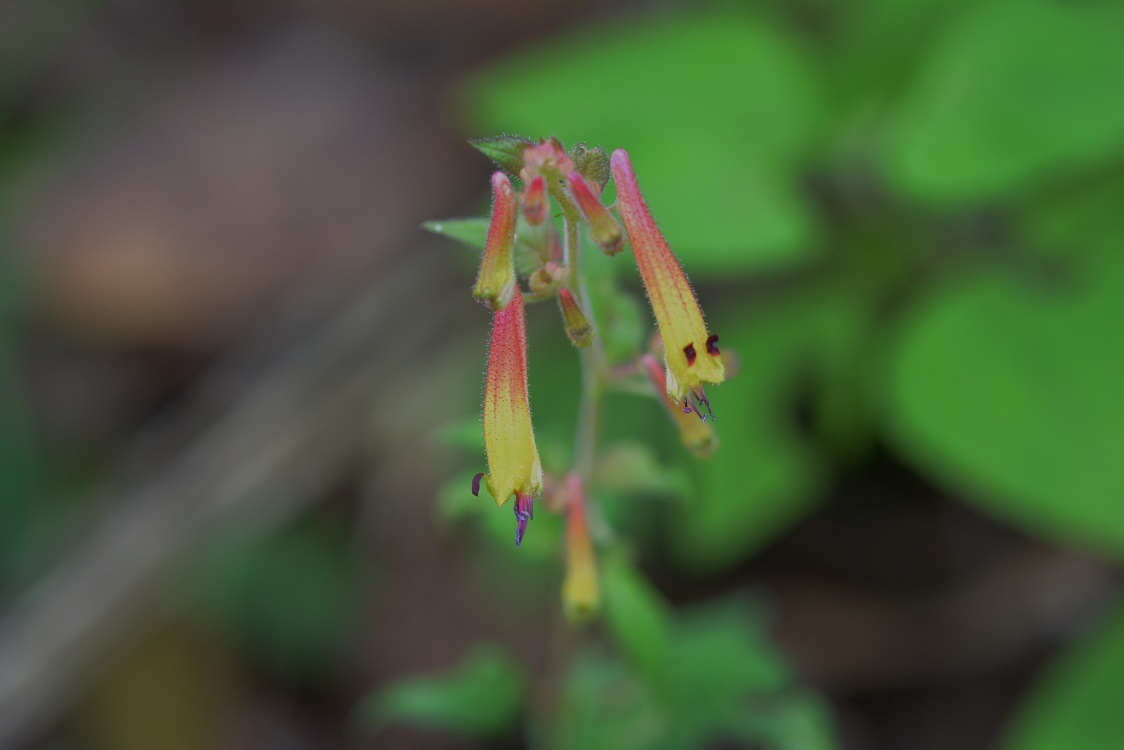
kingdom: Plantae
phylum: Tracheophyta
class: Magnoliopsida
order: Myrtales
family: Lythraceae
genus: Cuphea
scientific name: Cuphea cyanea
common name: Black-eyed cuphea
